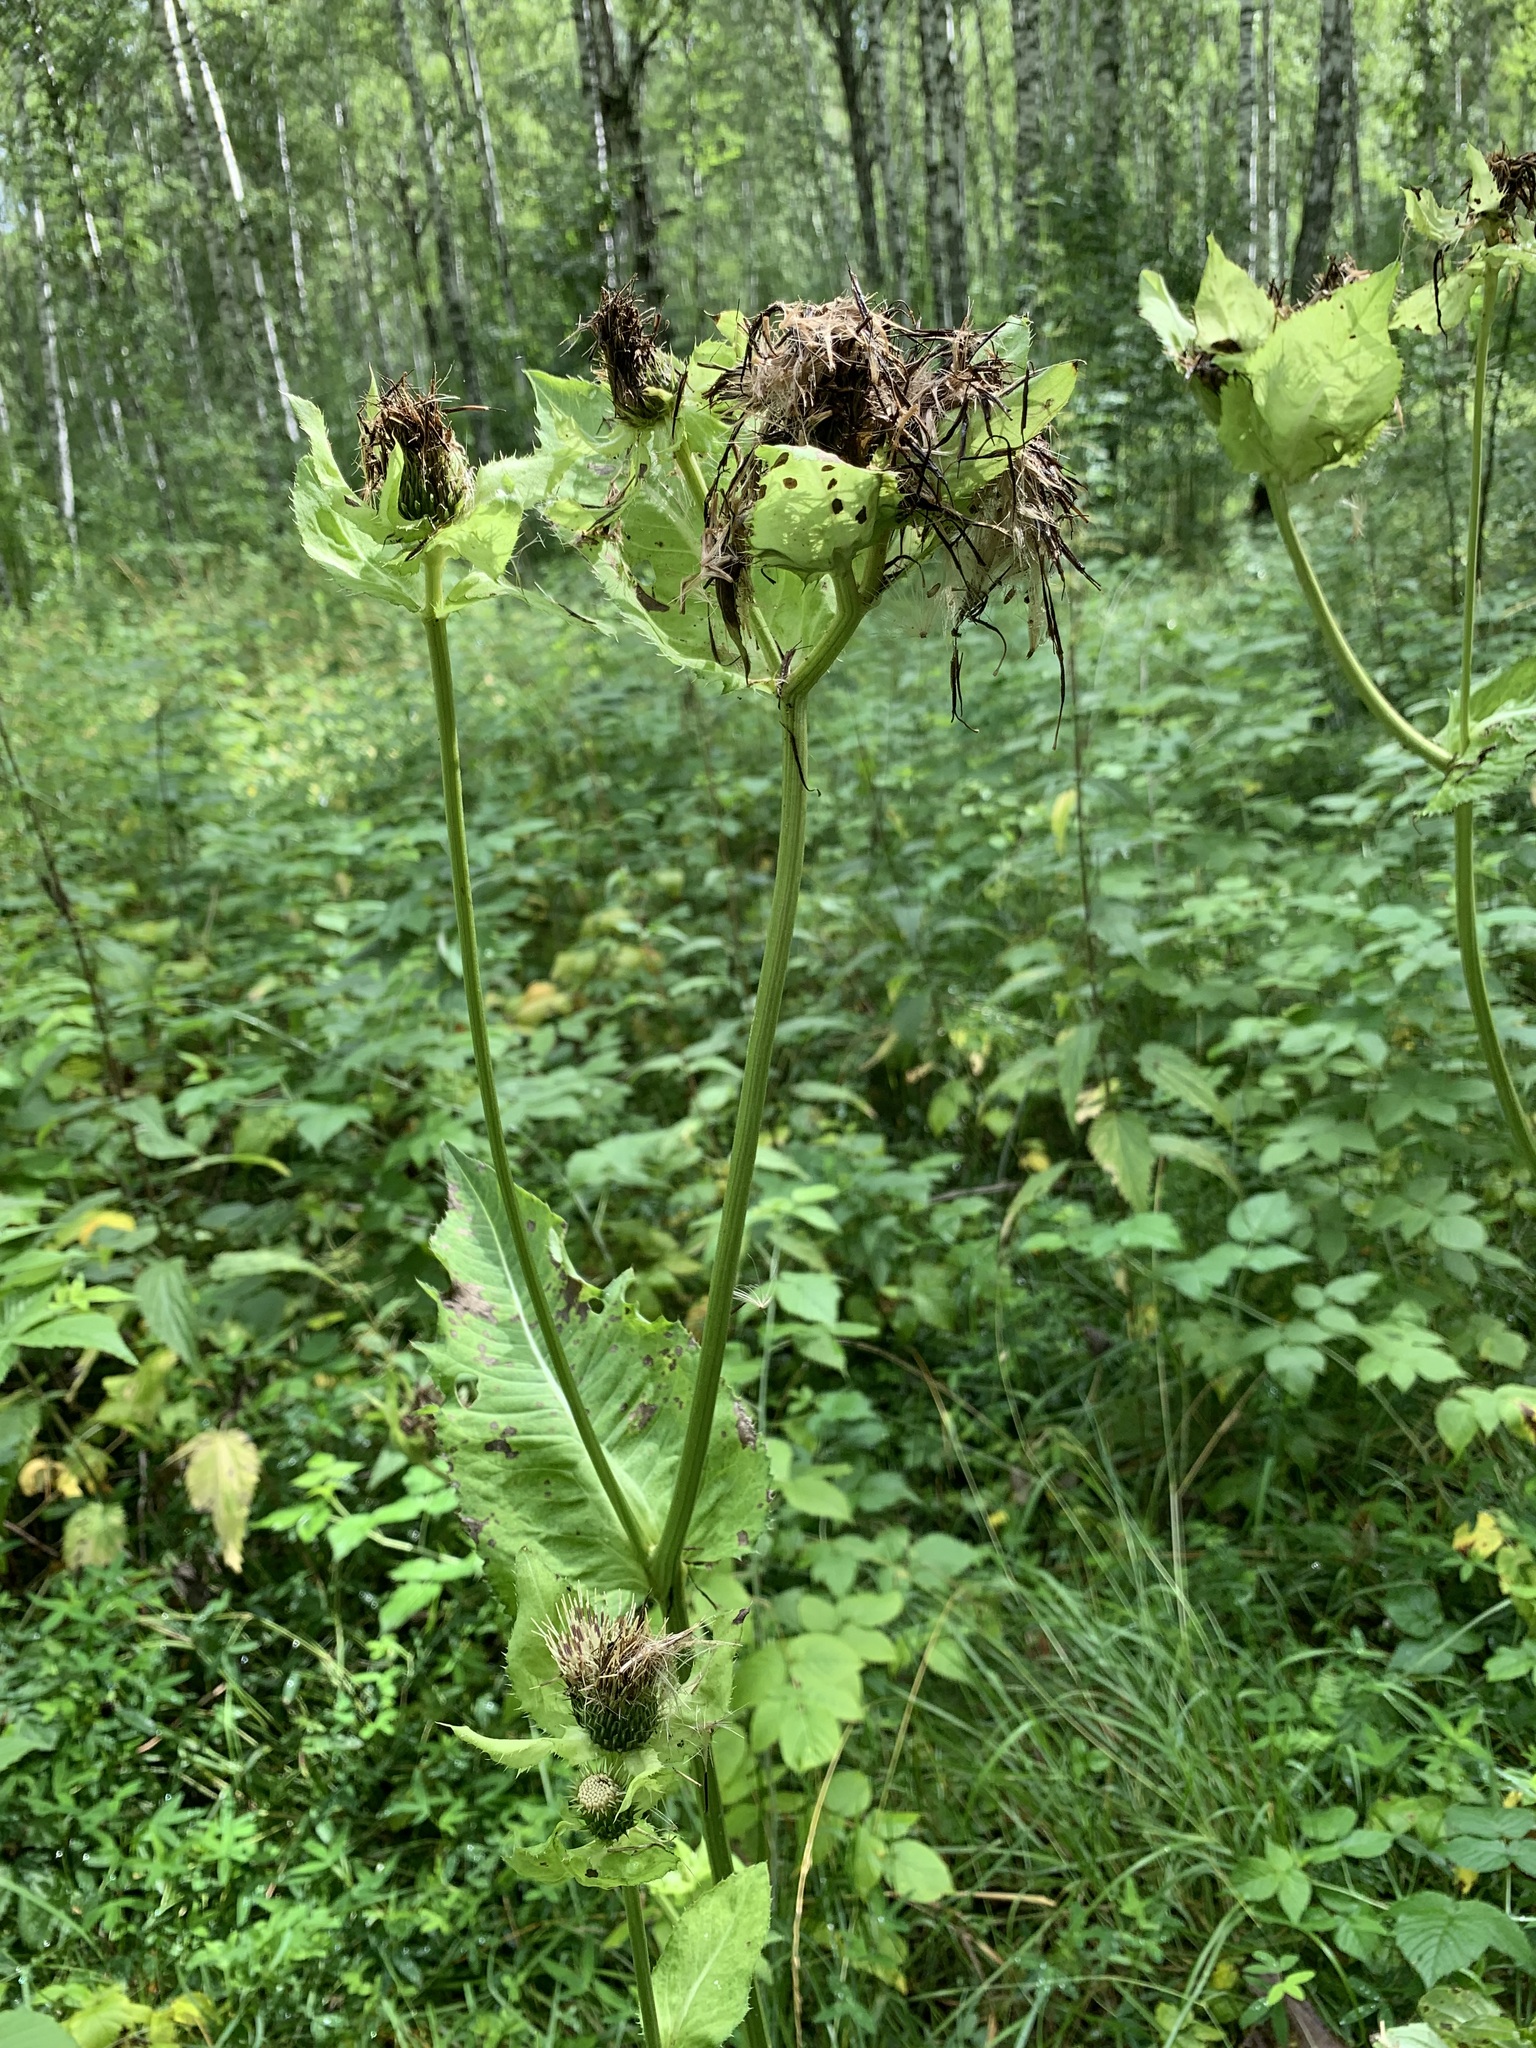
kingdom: Plantae
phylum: Tracheophyta
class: Magnoliopsida
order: Asterales
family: Asteraceae
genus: Cirsium
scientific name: Cirsium oleraceum
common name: Cabbage thistle
